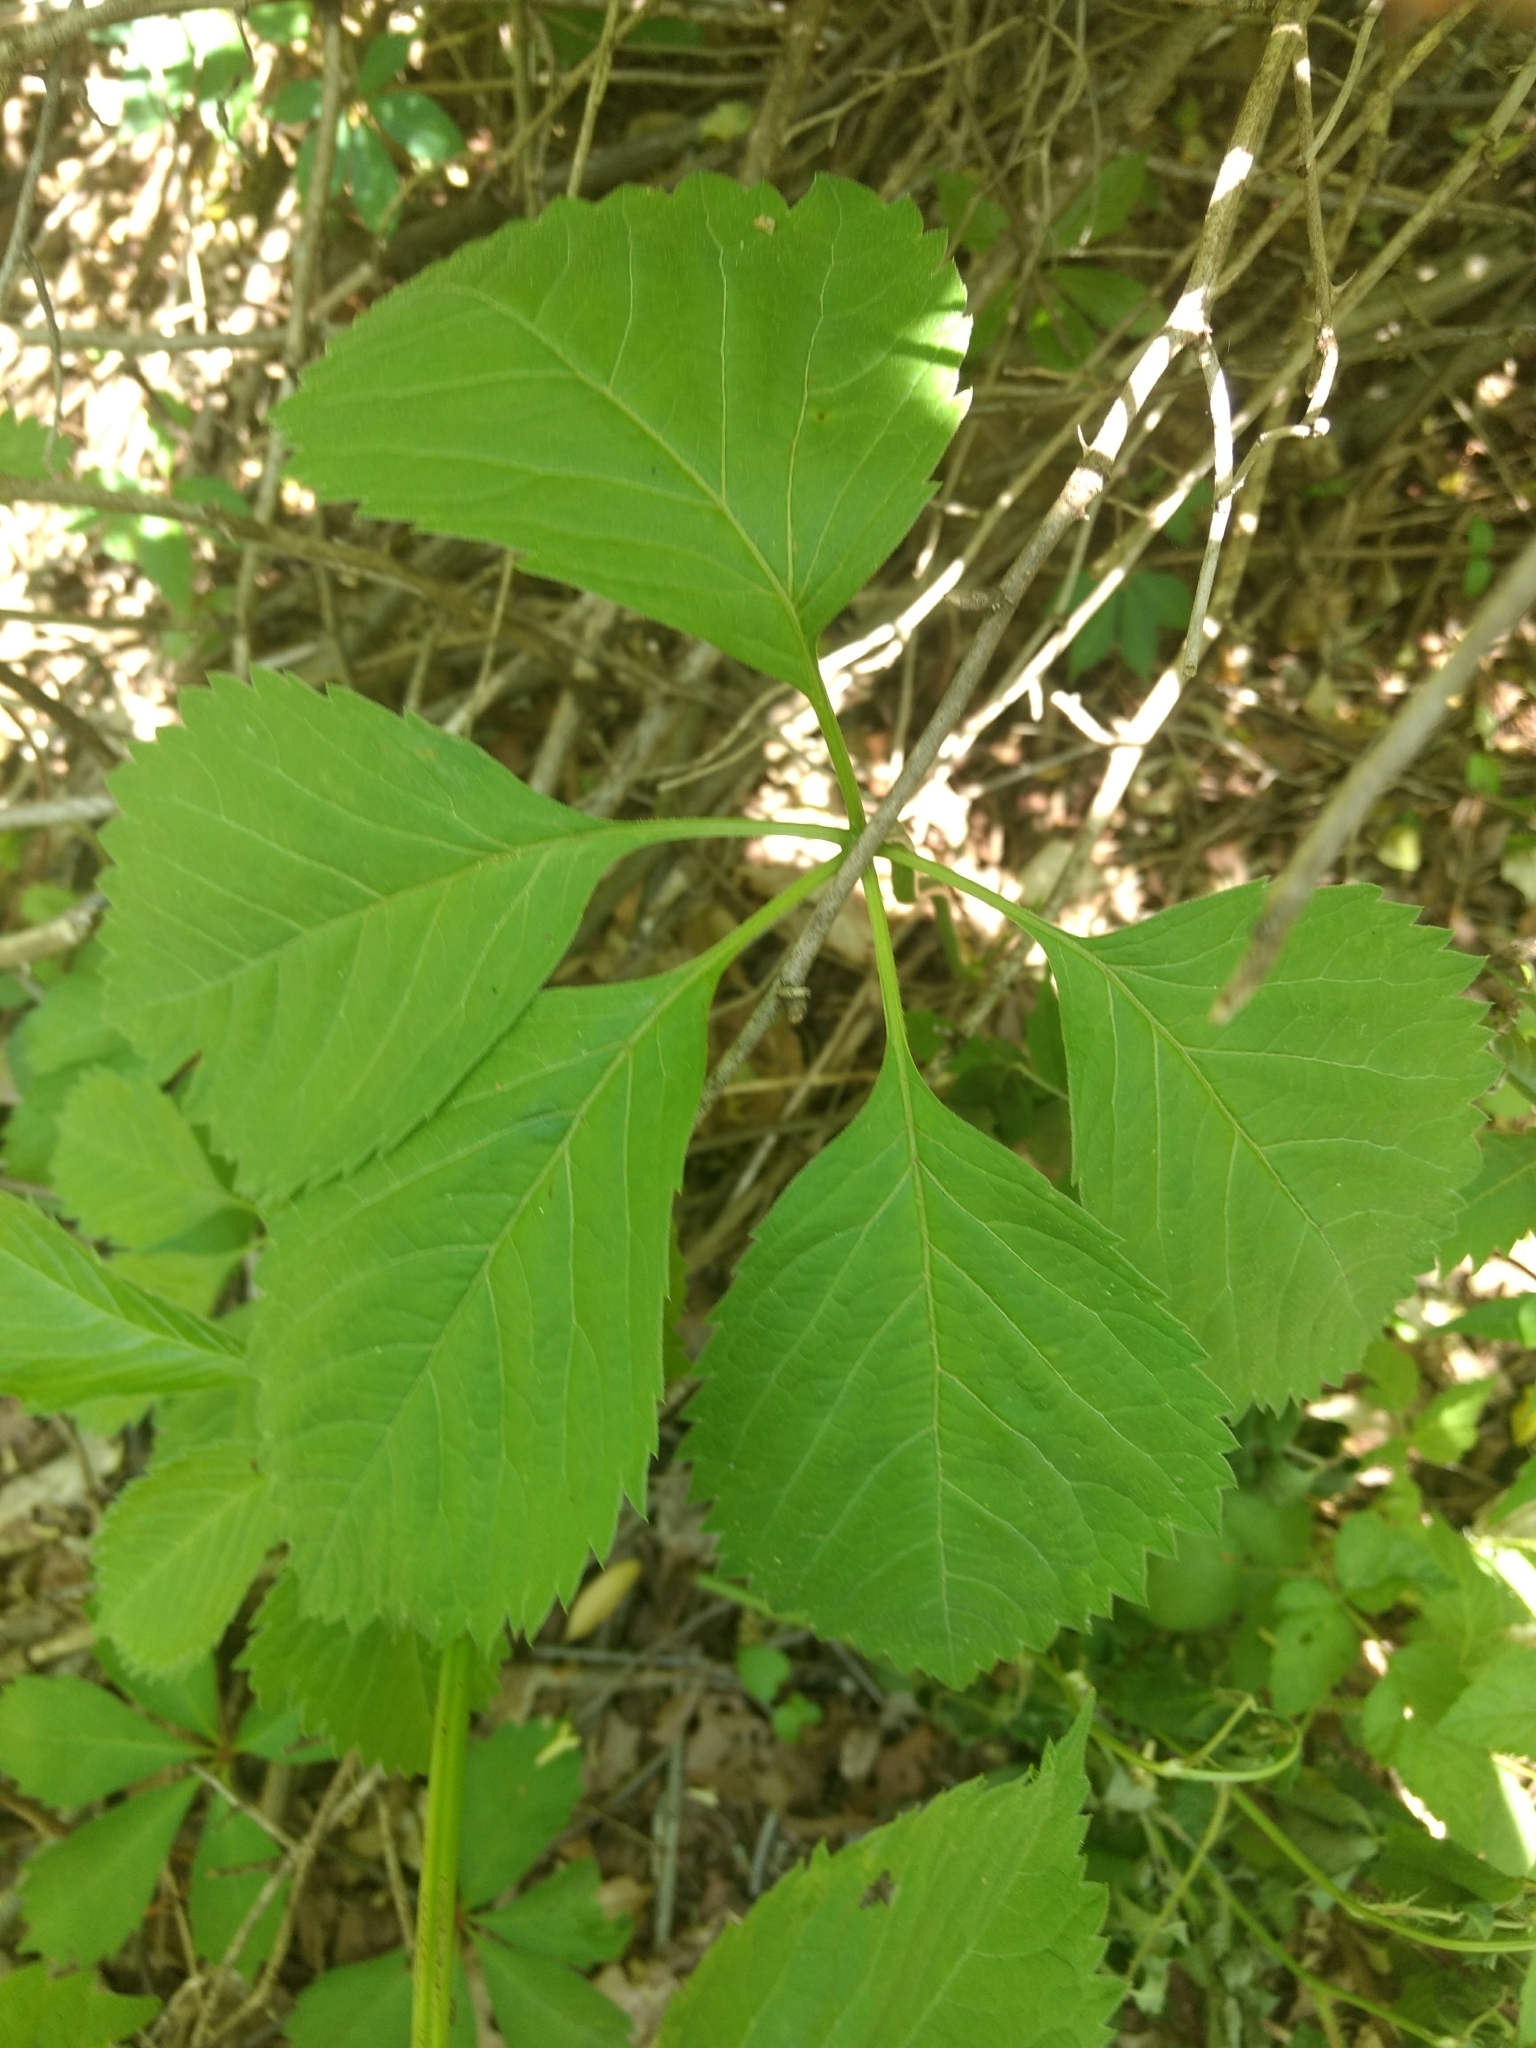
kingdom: Plantae
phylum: Tracheophyta
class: Magnoliopsida
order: Vitales
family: Vitaceae
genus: Parthenocissus
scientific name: Parthenocissus inserta
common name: False virginia-creeper
